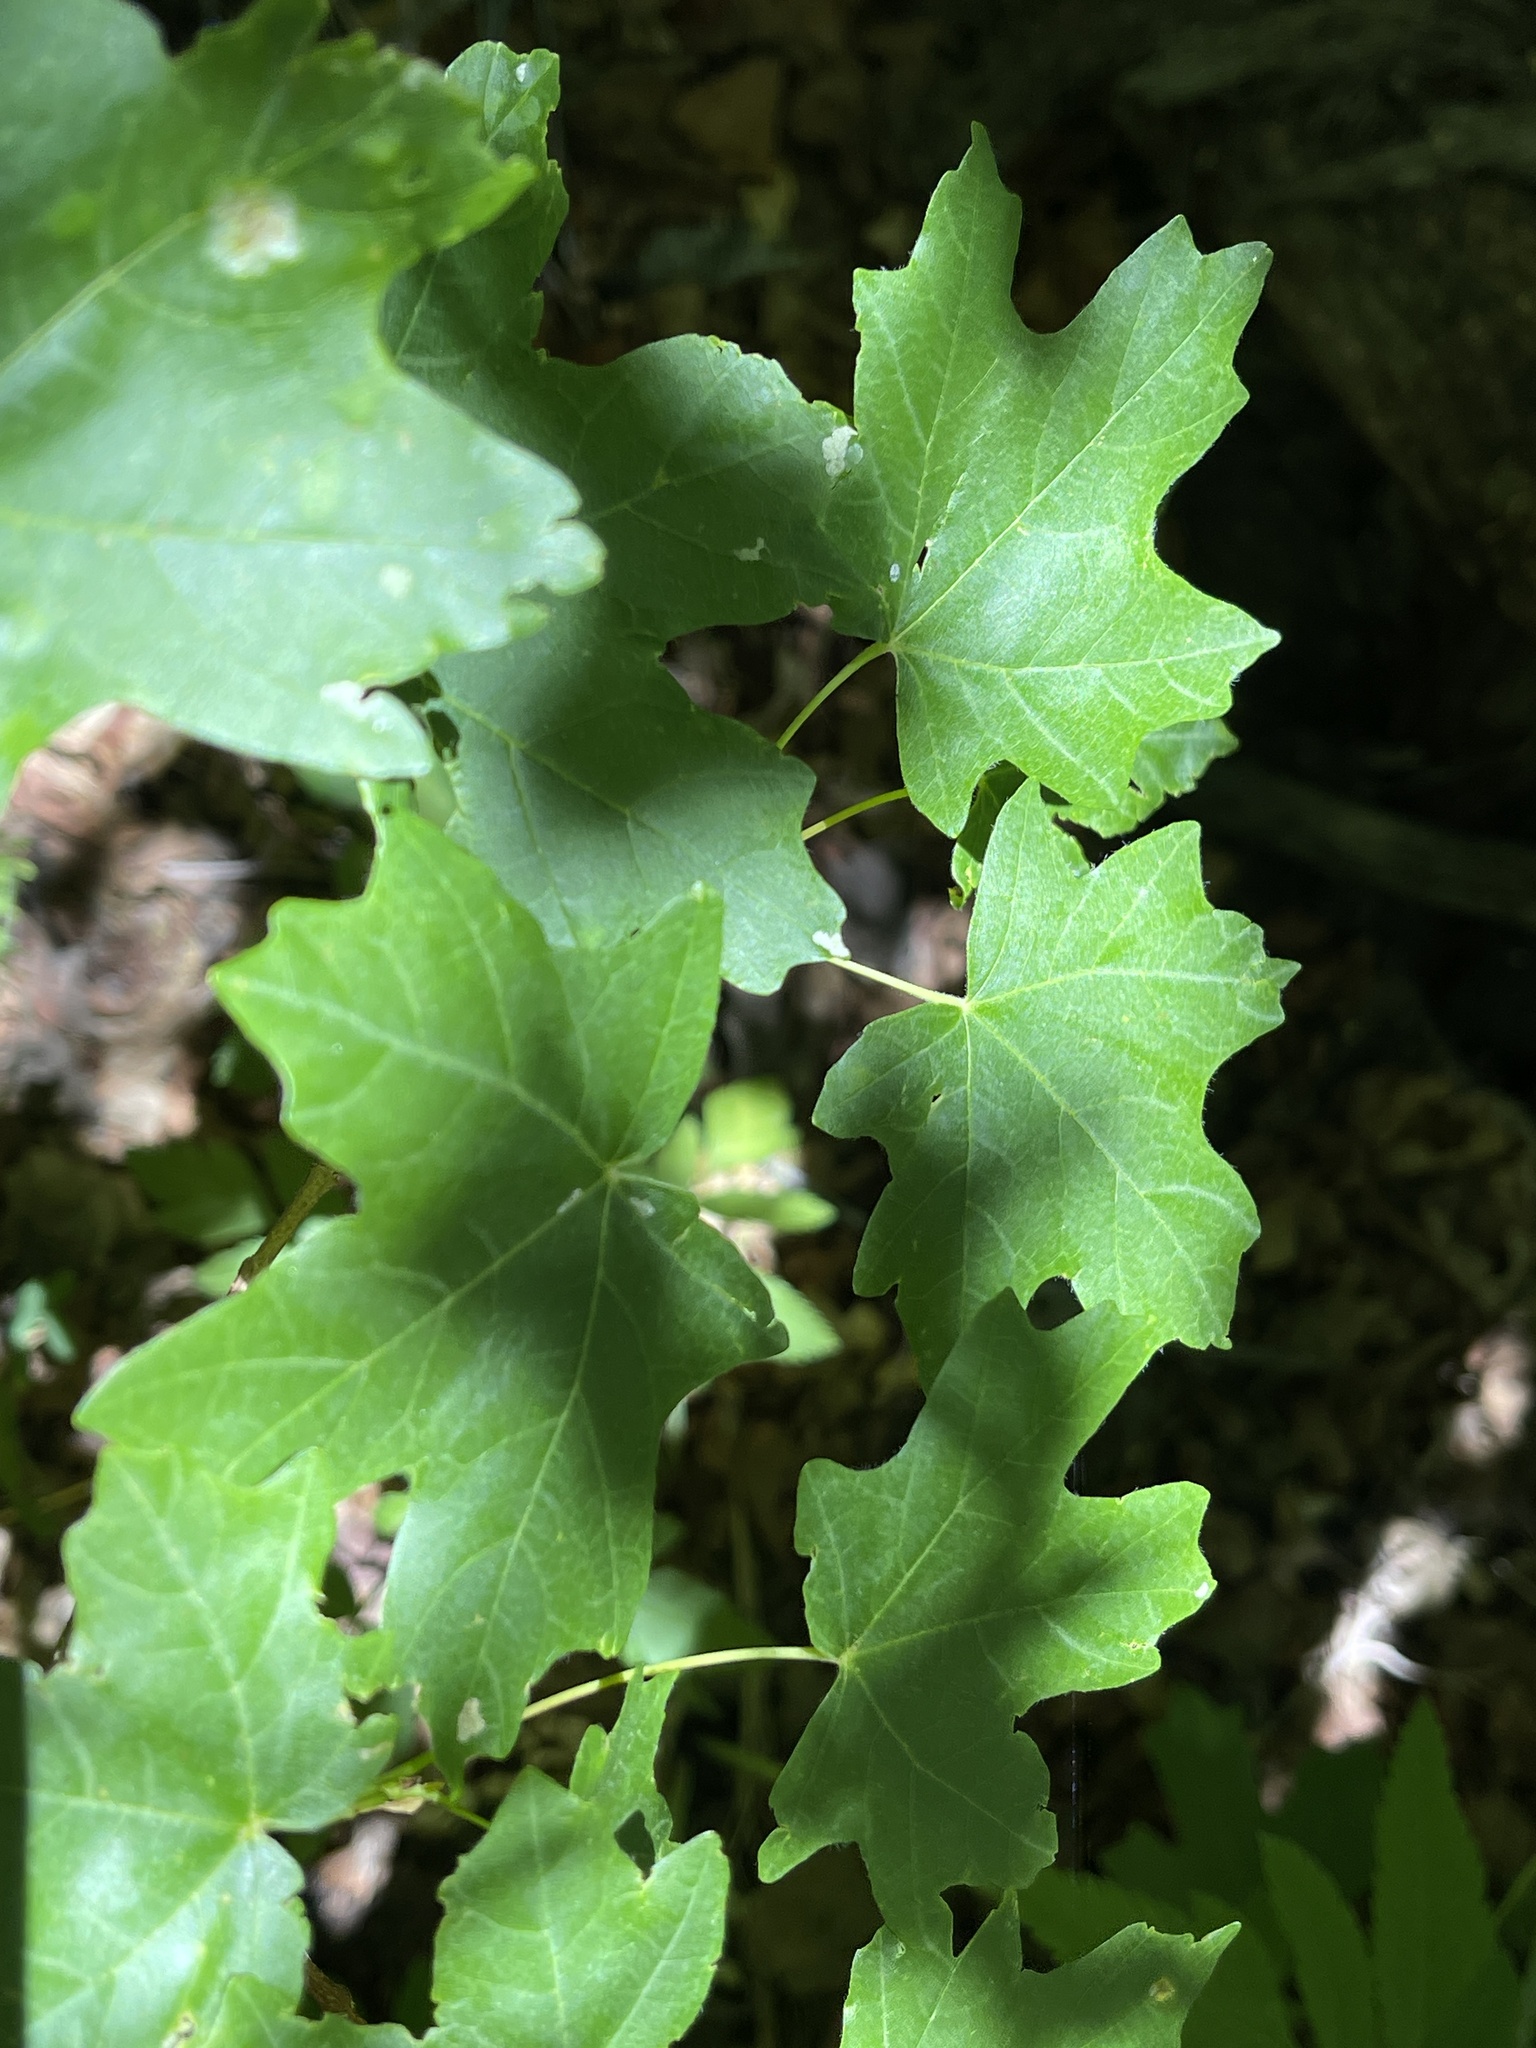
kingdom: Plantae
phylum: Tracheophyta
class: Magnoliopsida
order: Sapindales
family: Sapindaceae
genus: Acer
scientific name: Acer grandidentatum
